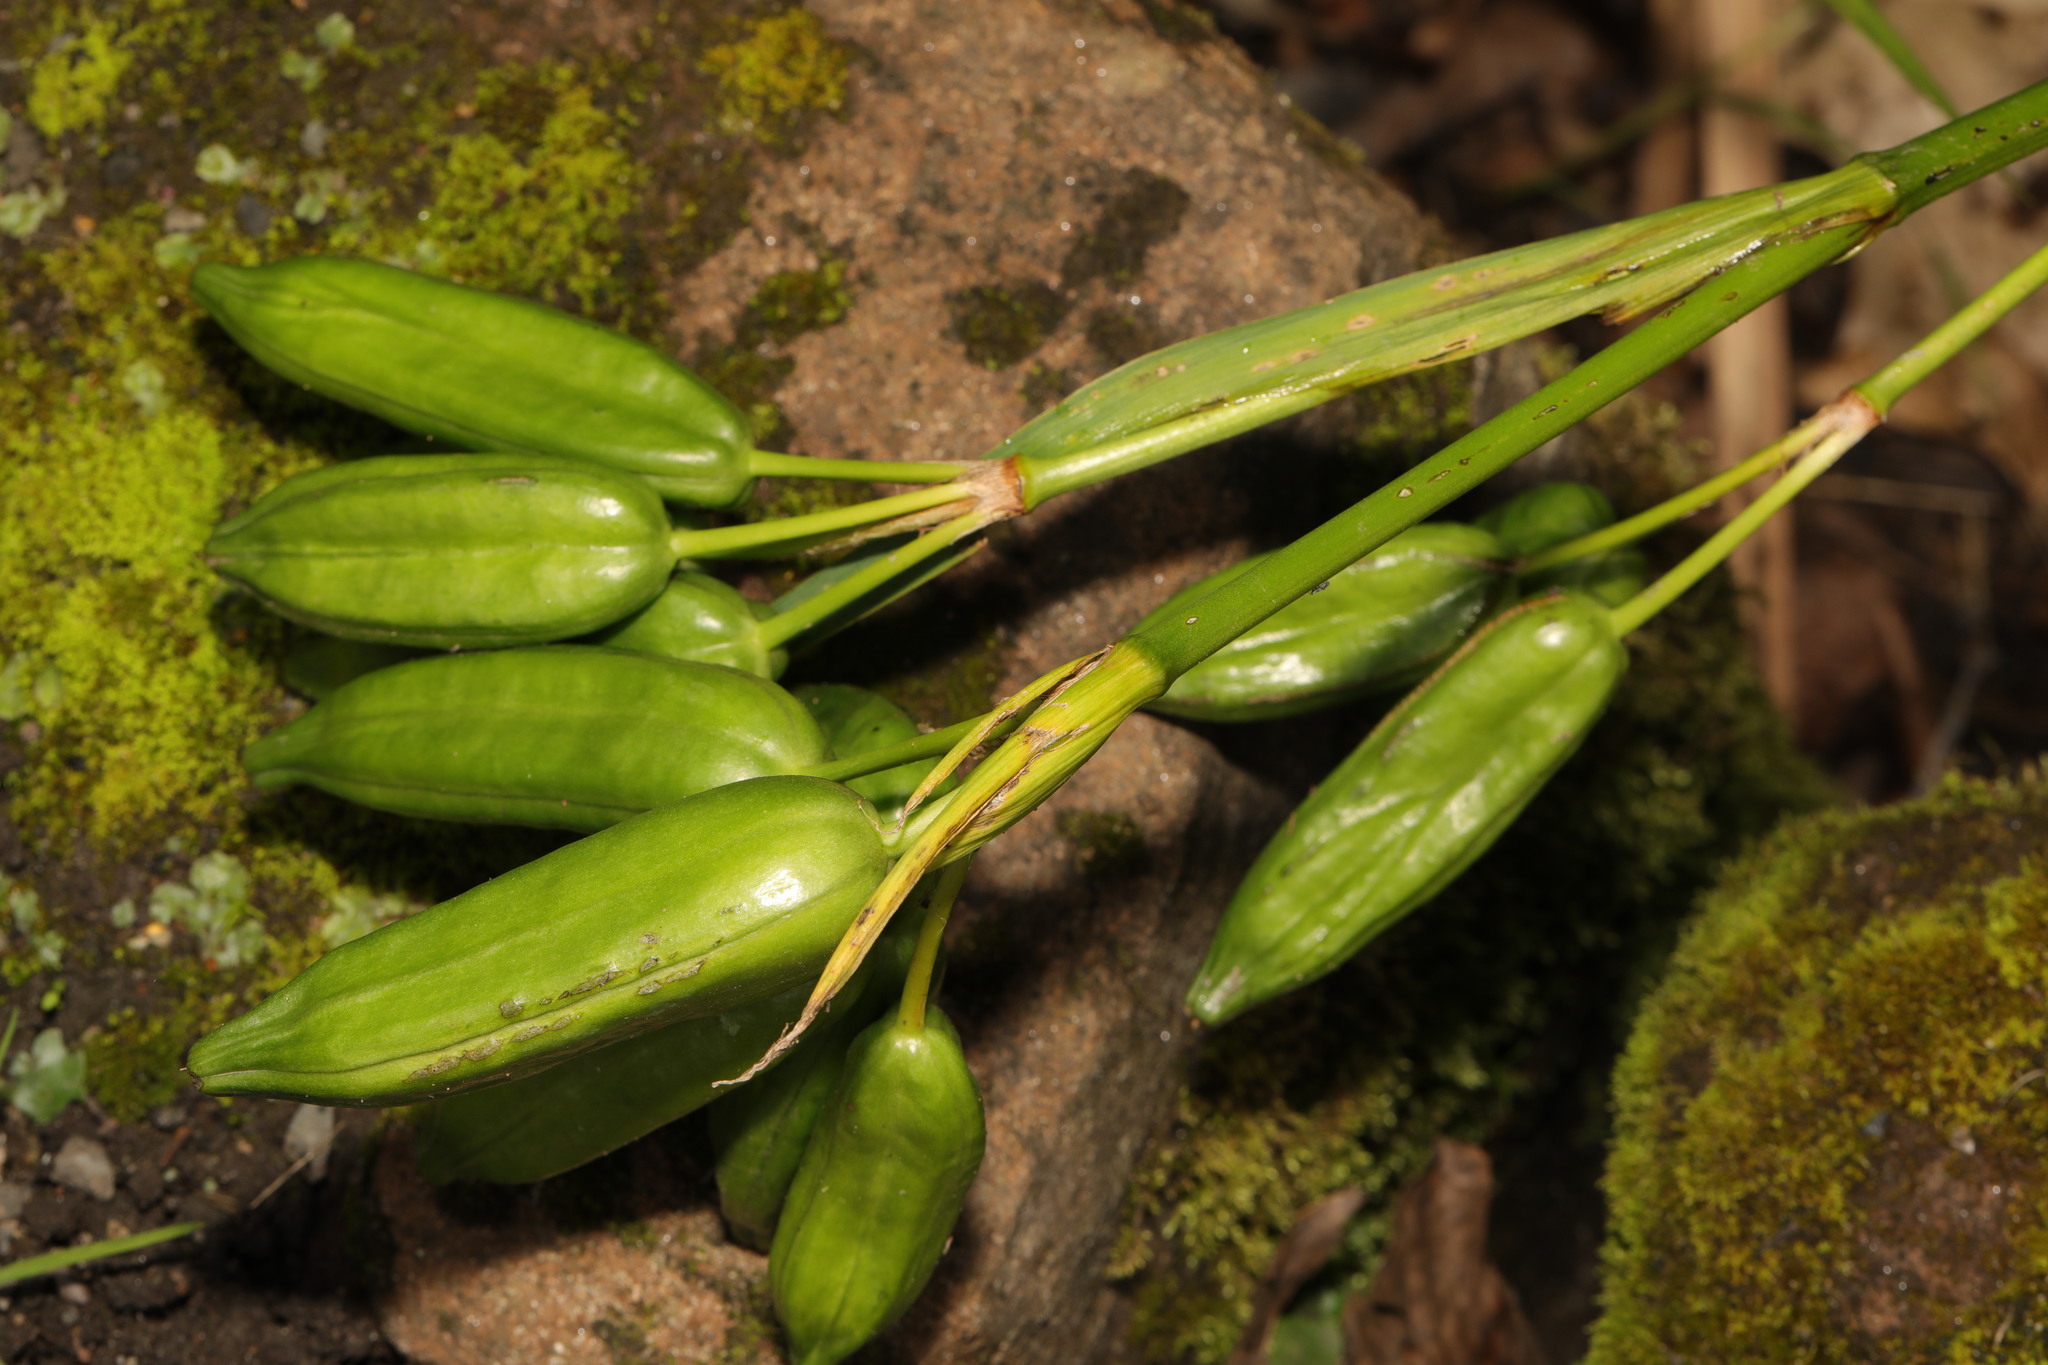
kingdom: Plantae
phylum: Tracheophyta
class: Liliopsida
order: Asparagales
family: Iridaceae
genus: Iris
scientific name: Iris pseudacorus
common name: Yellow flag
